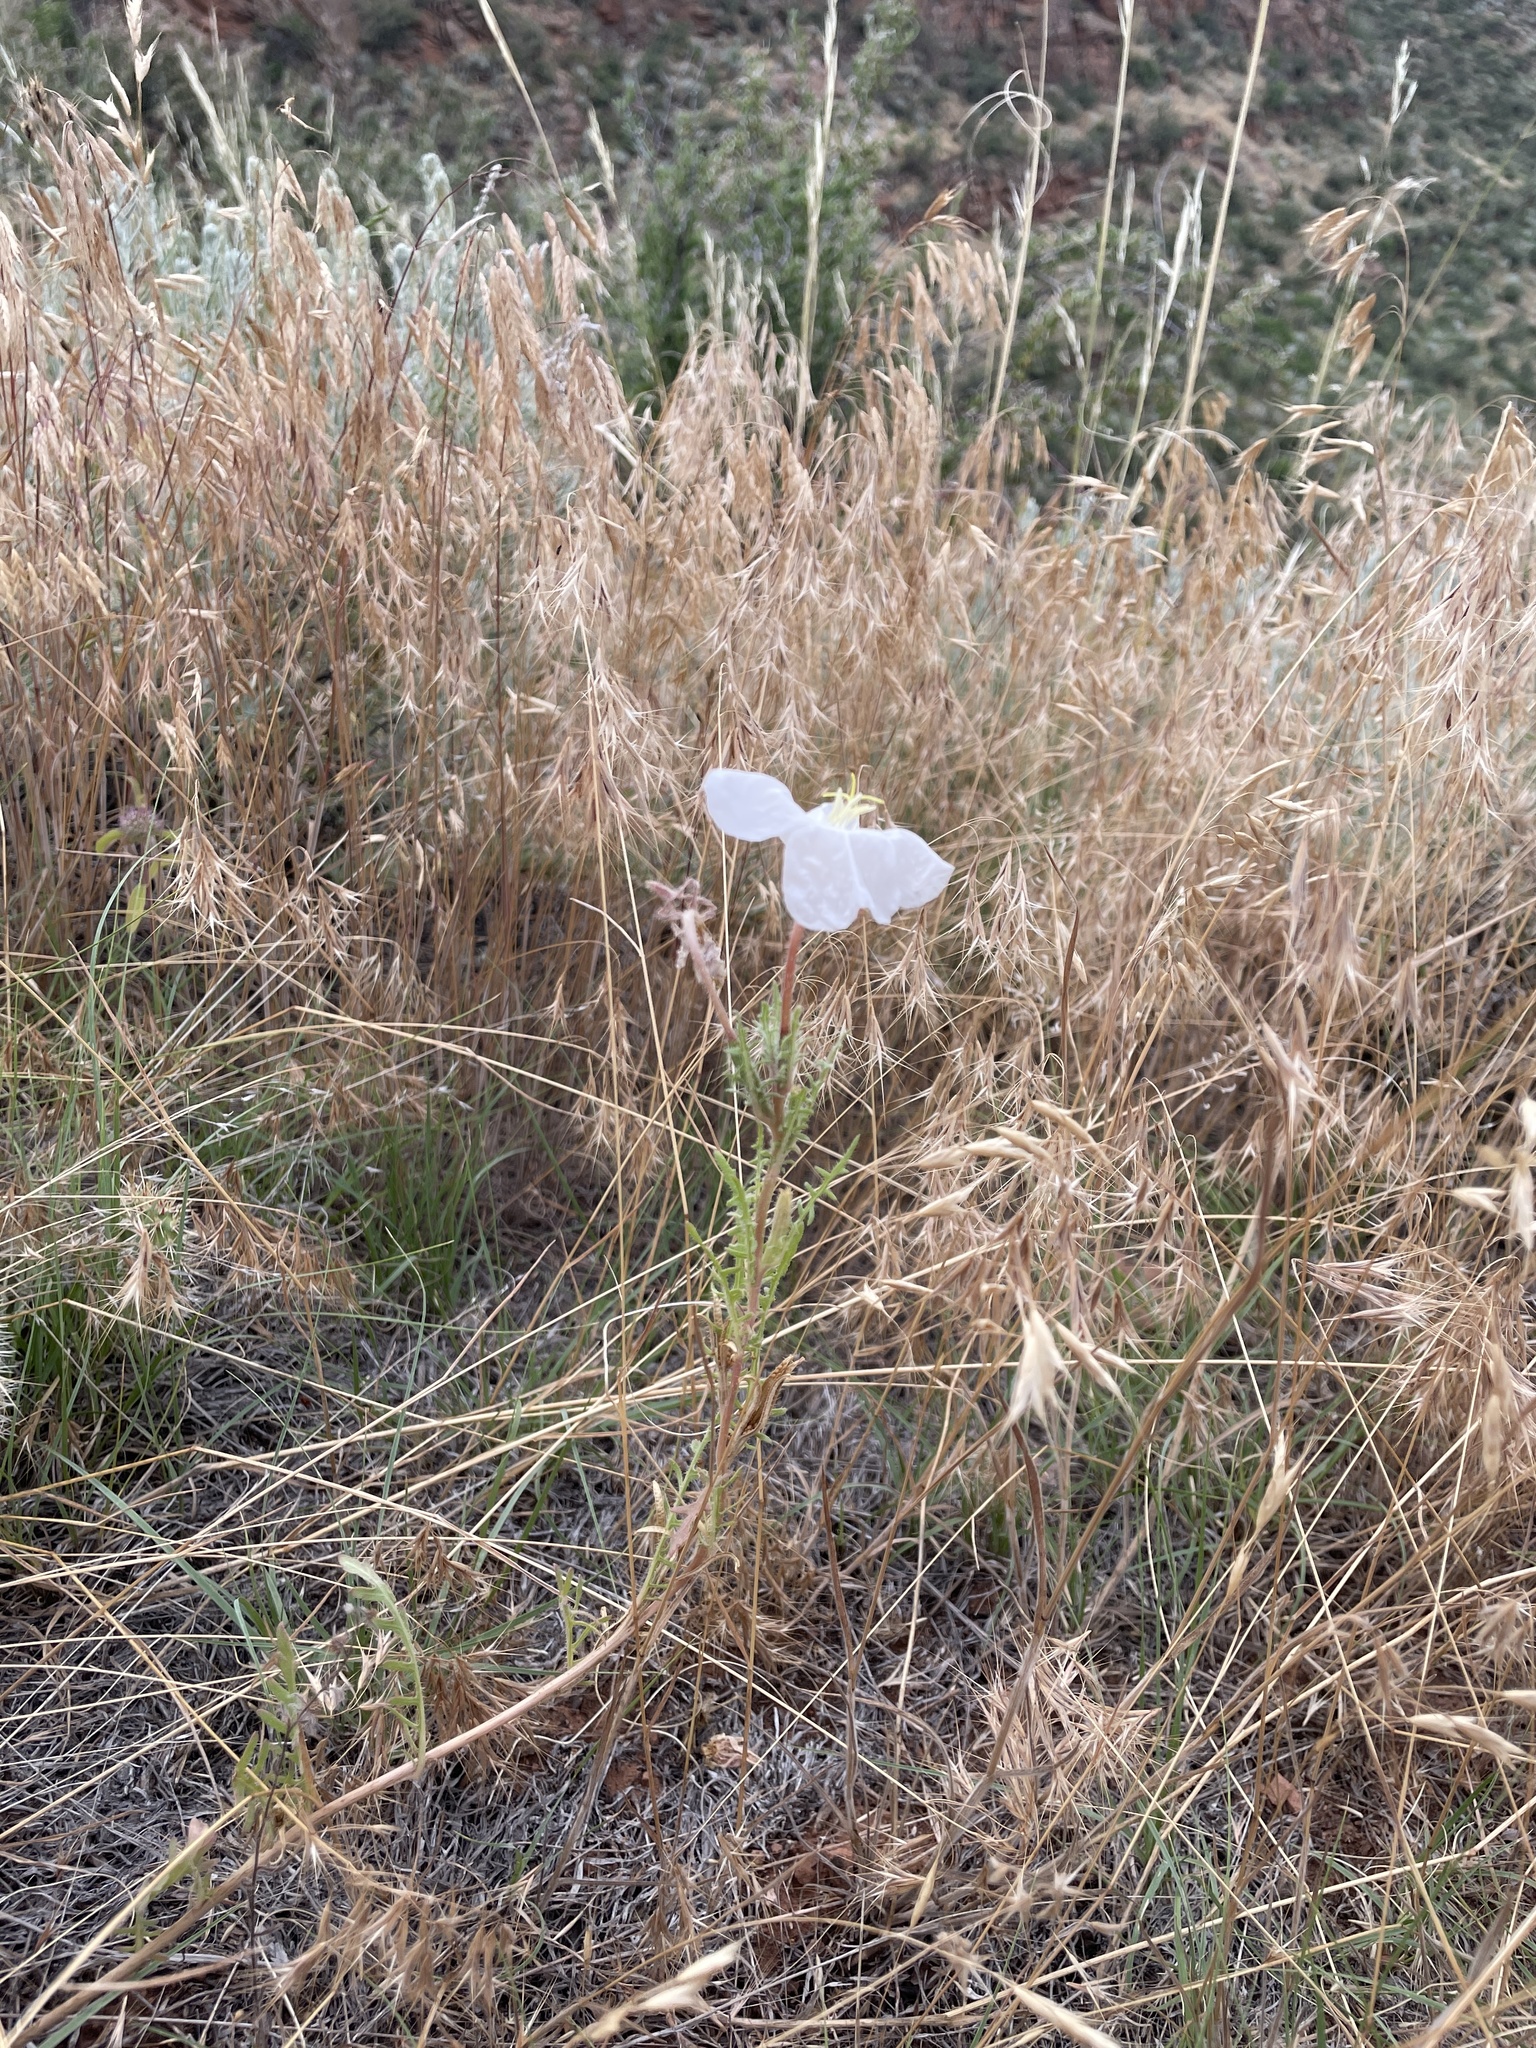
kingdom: Plantae
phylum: Tracheophyta
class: Magnoliopsida
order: Myrtales
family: Onagraceae
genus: Oenothera
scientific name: Oenothera coronopifolia
